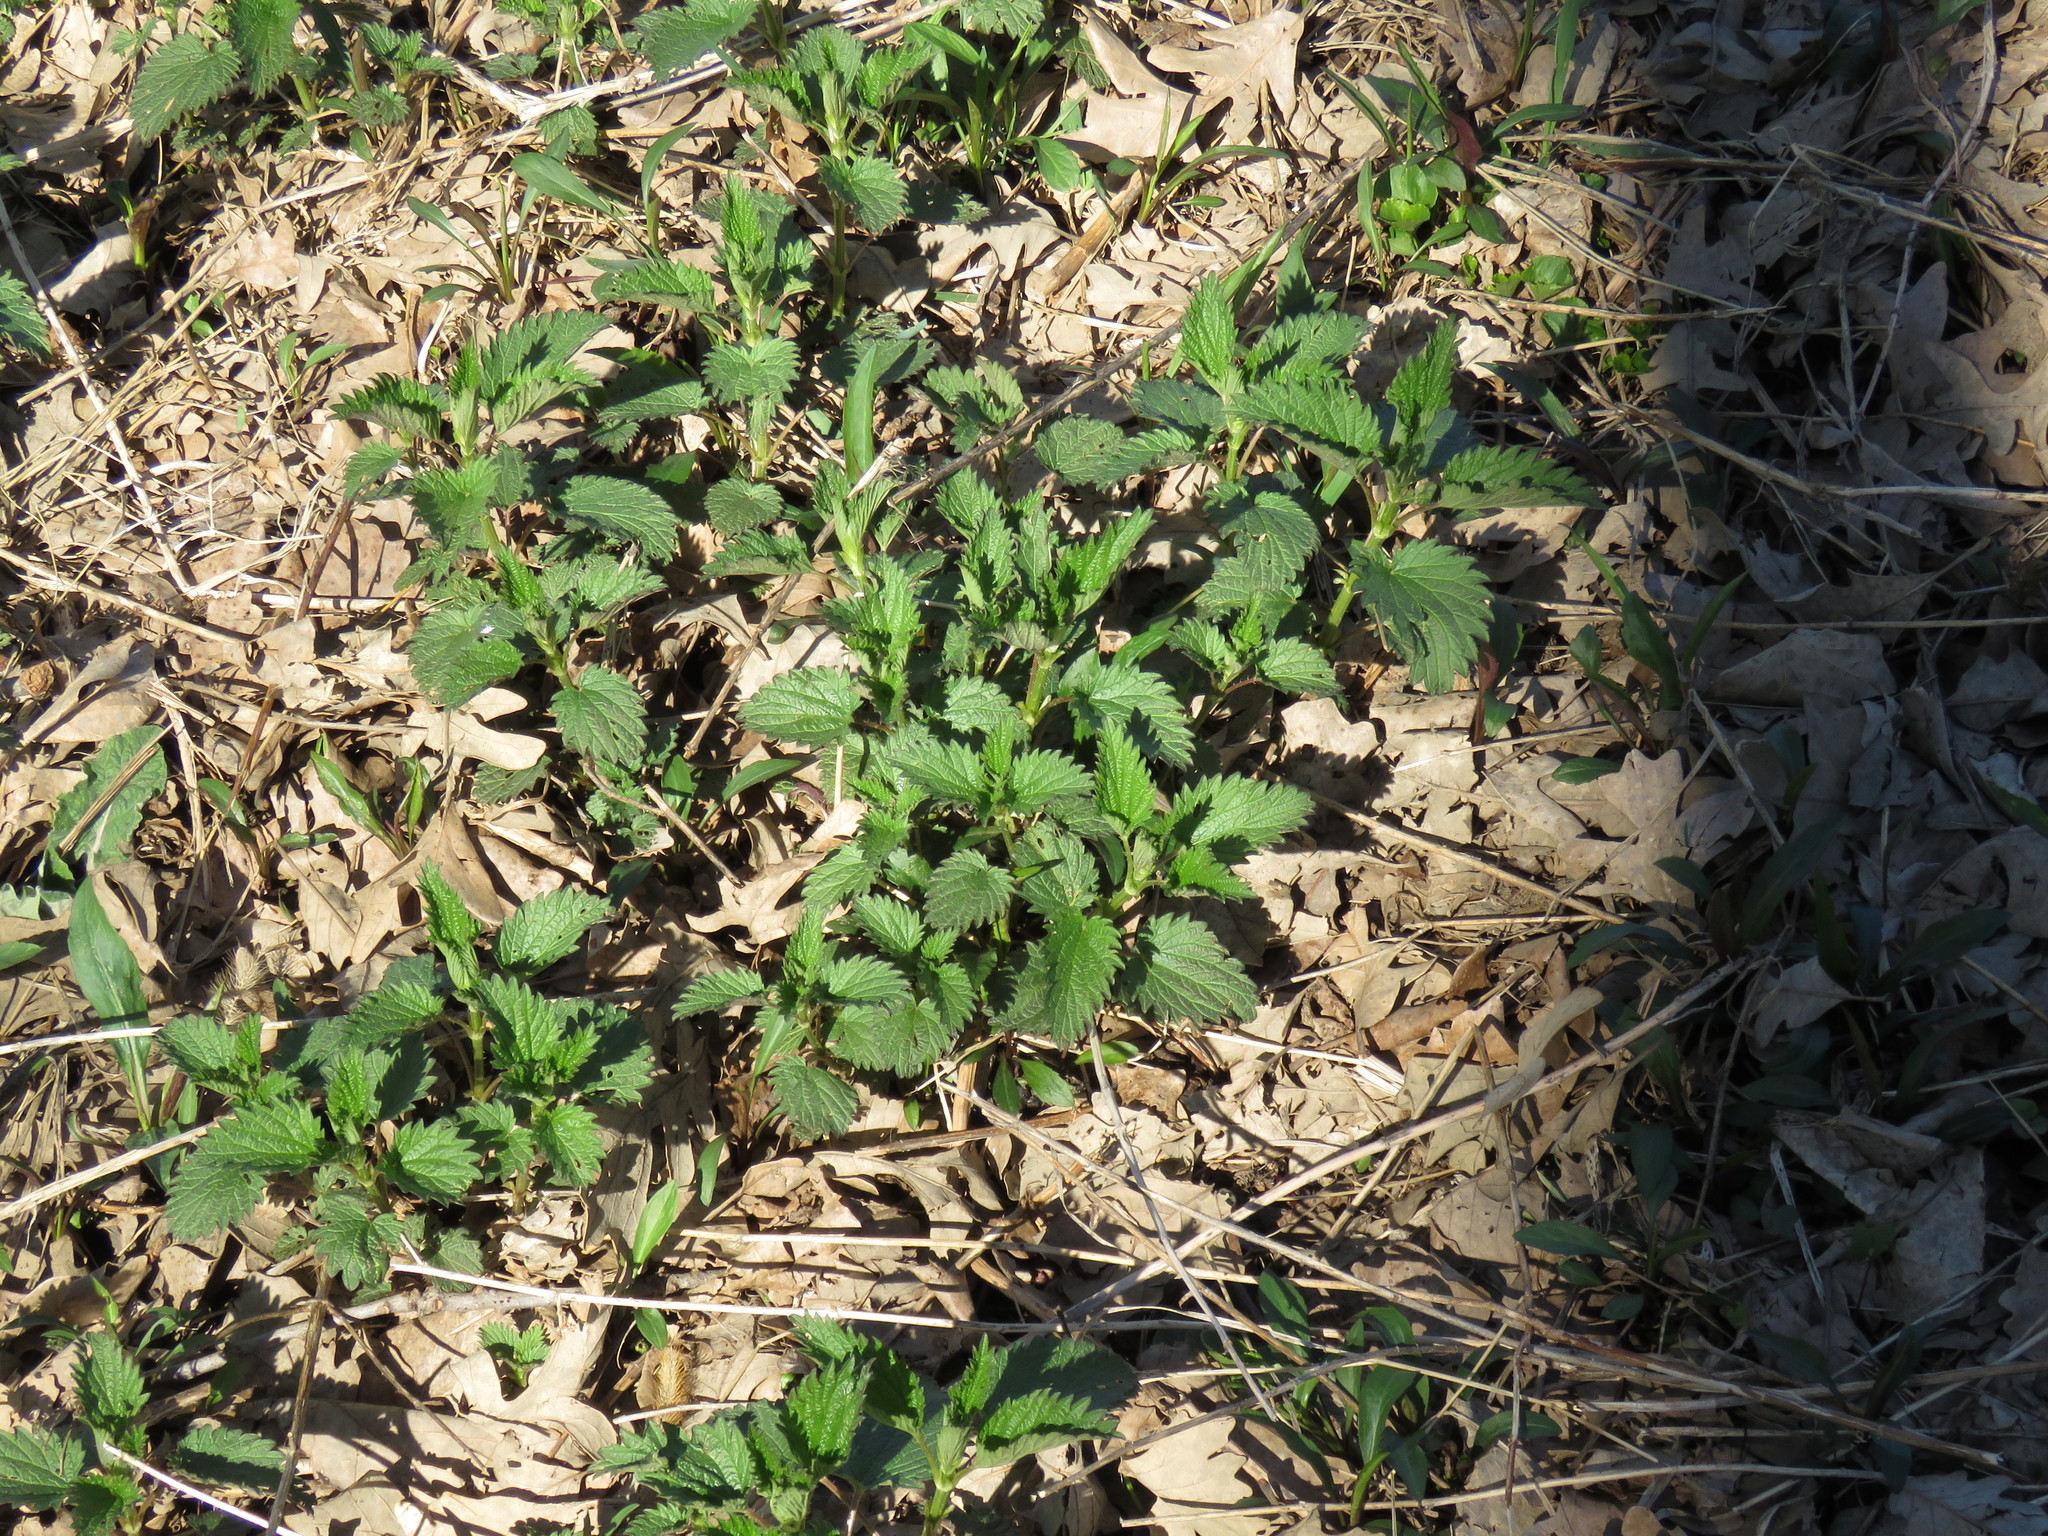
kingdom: Plantae
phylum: Tracheophyta
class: Magnoliopsida
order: Rosales
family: Urticaceae
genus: Urtica
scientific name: Urtica dioica
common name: Common nettle
